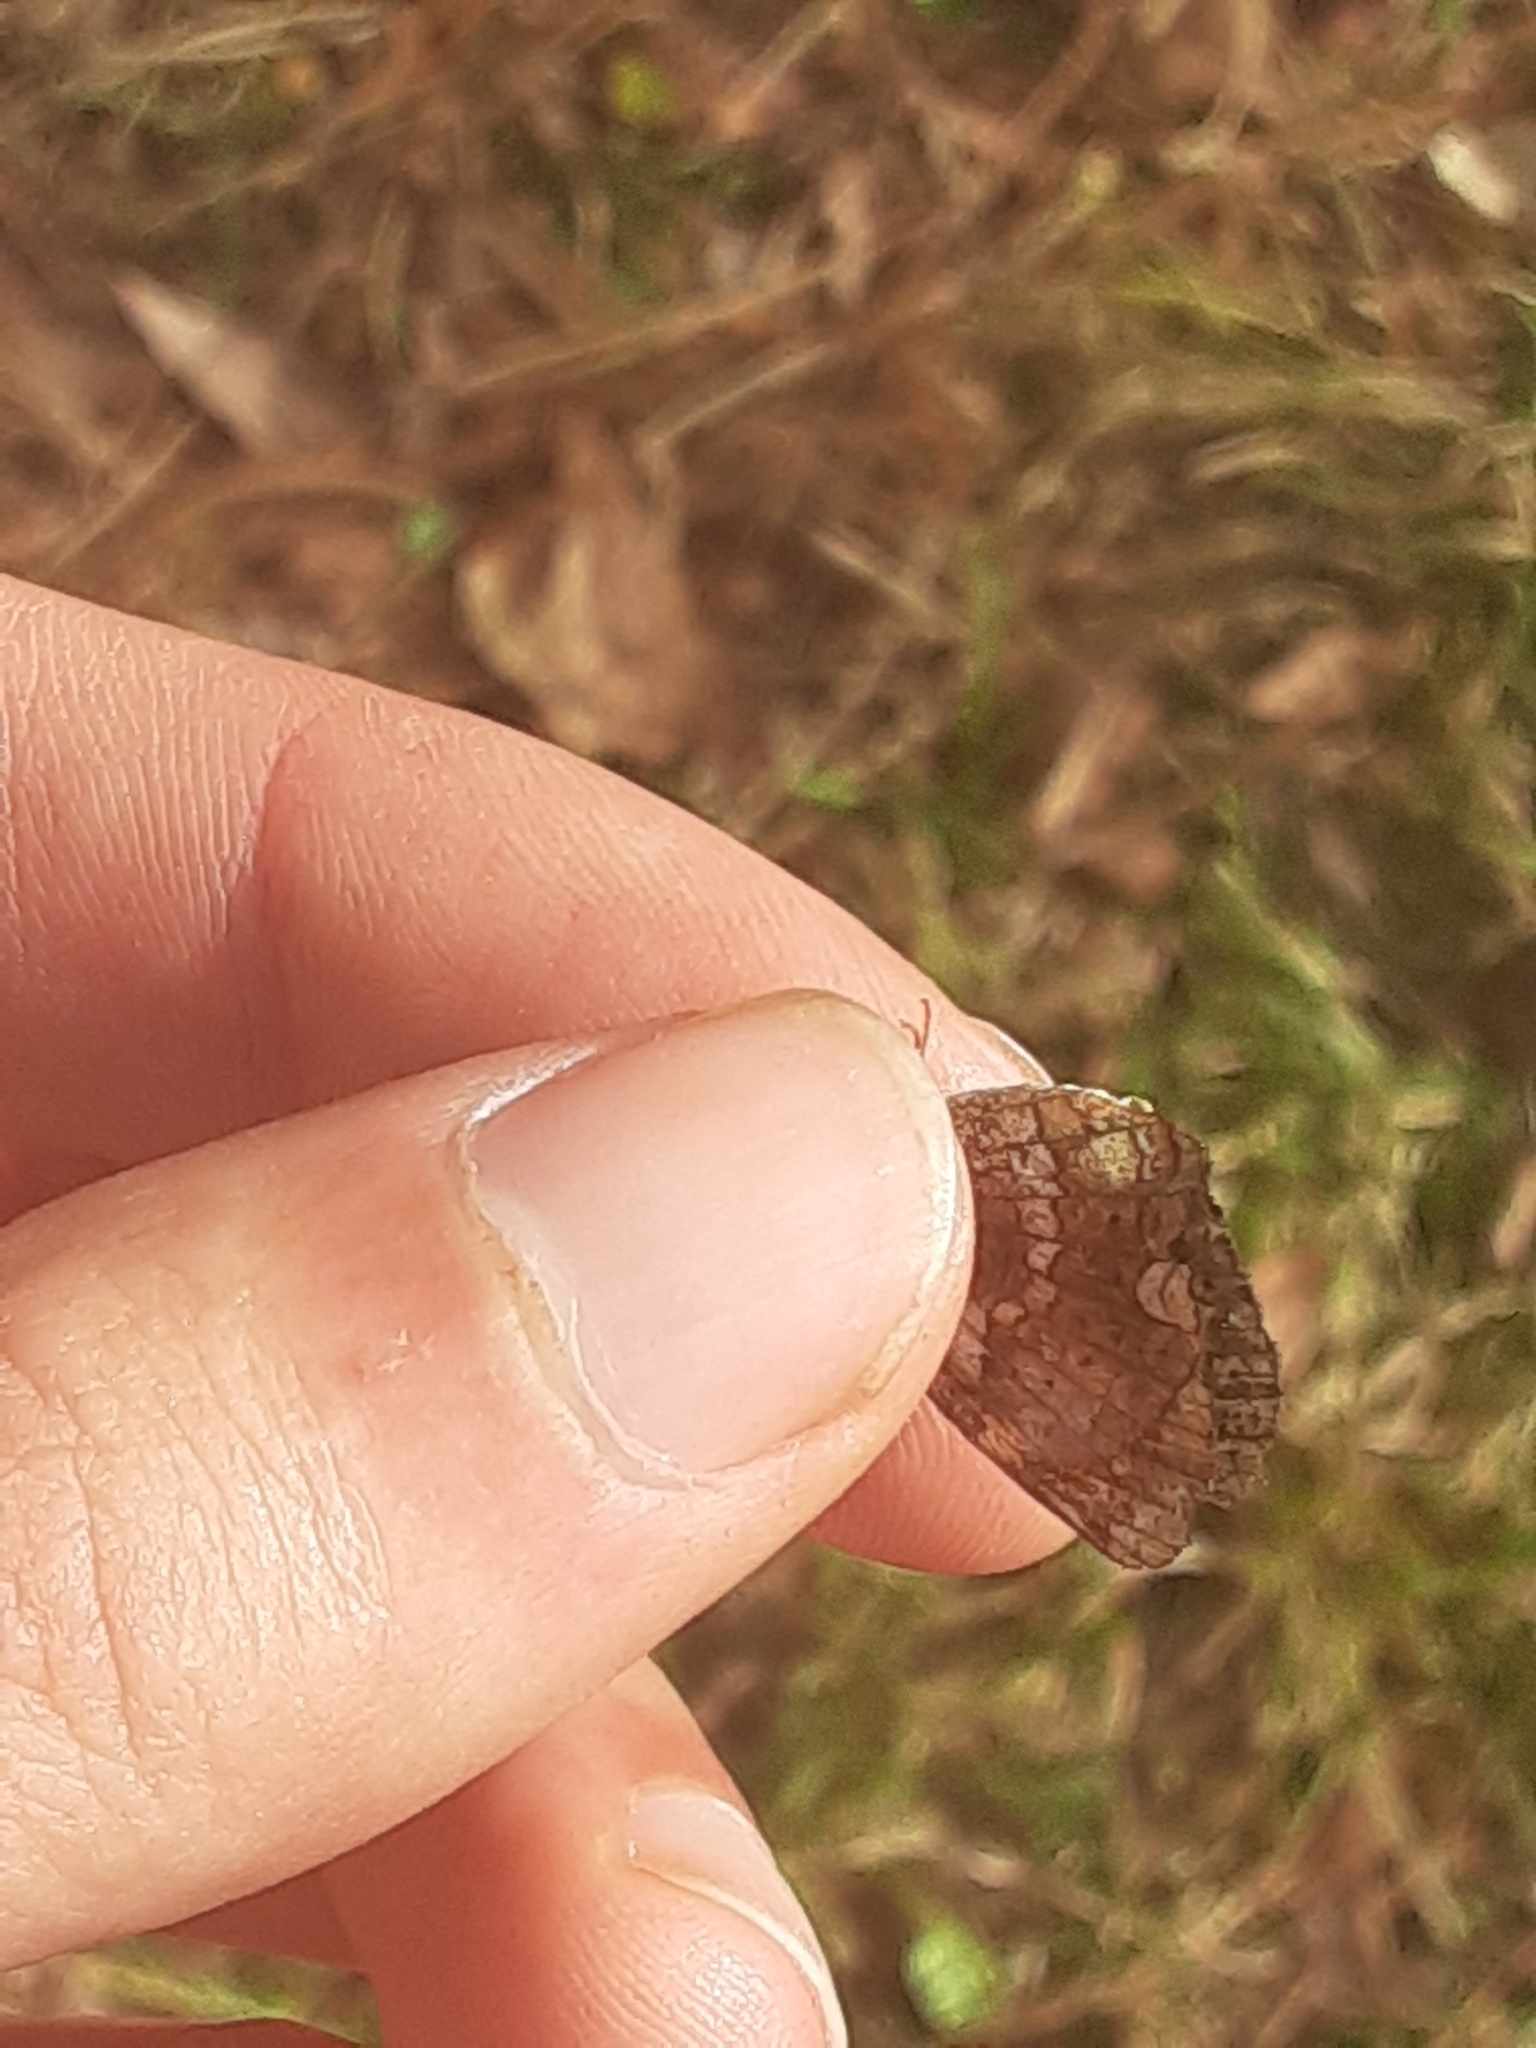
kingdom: Animalia
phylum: Arthropoda
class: Insecta
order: Lepidoptera
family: Nymphalidae
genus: Phyciodes
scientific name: Phyciodes tharos
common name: Pearl crescent
